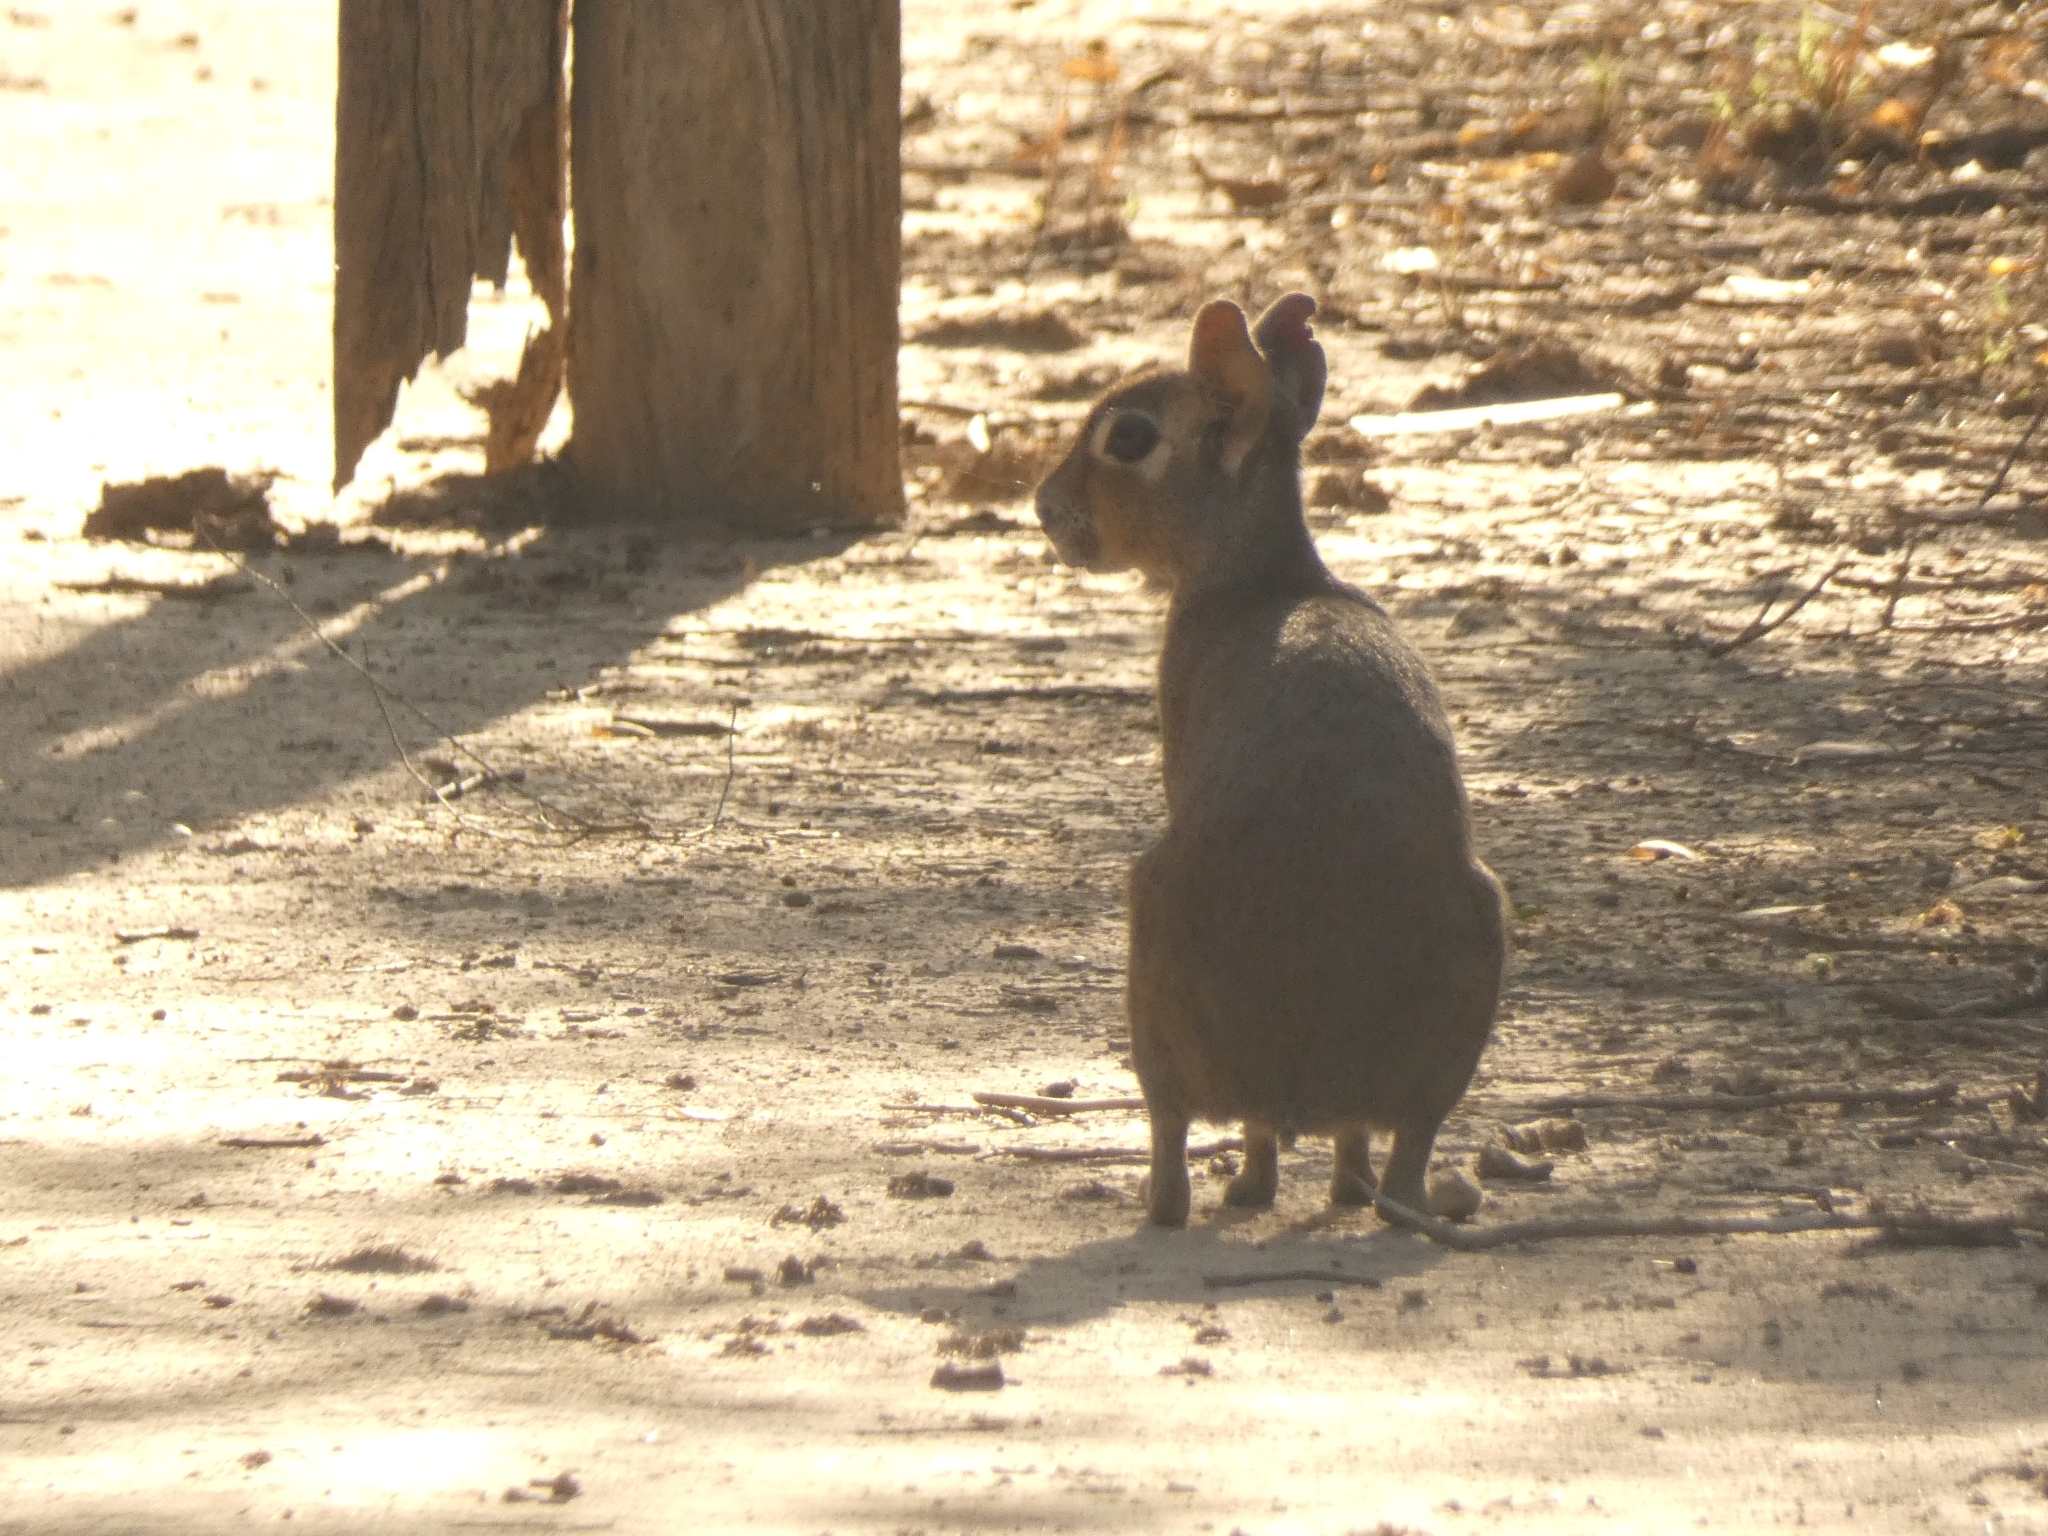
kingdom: Animalia
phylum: Chordata
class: Mammalia
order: Rodentia
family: Caviidae
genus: Dolichotis
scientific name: Dolichotis Pediolagus salinicola
